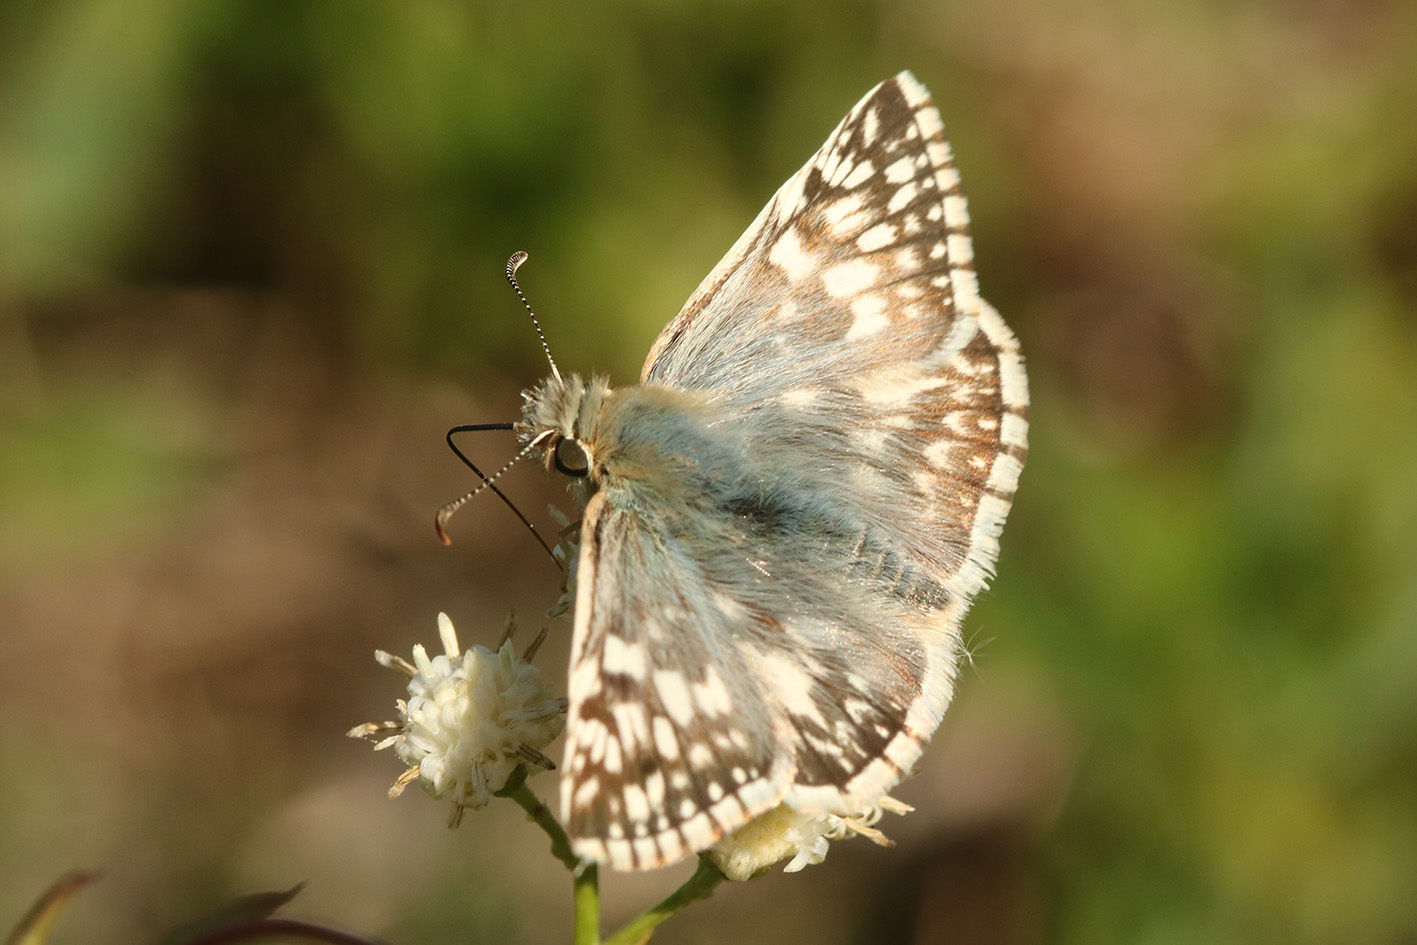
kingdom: Animalia
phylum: Arthropoda
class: Insecta
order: Lepidoptera
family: Hesperiidae
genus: Heliopetes
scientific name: Heliopetes americanus
